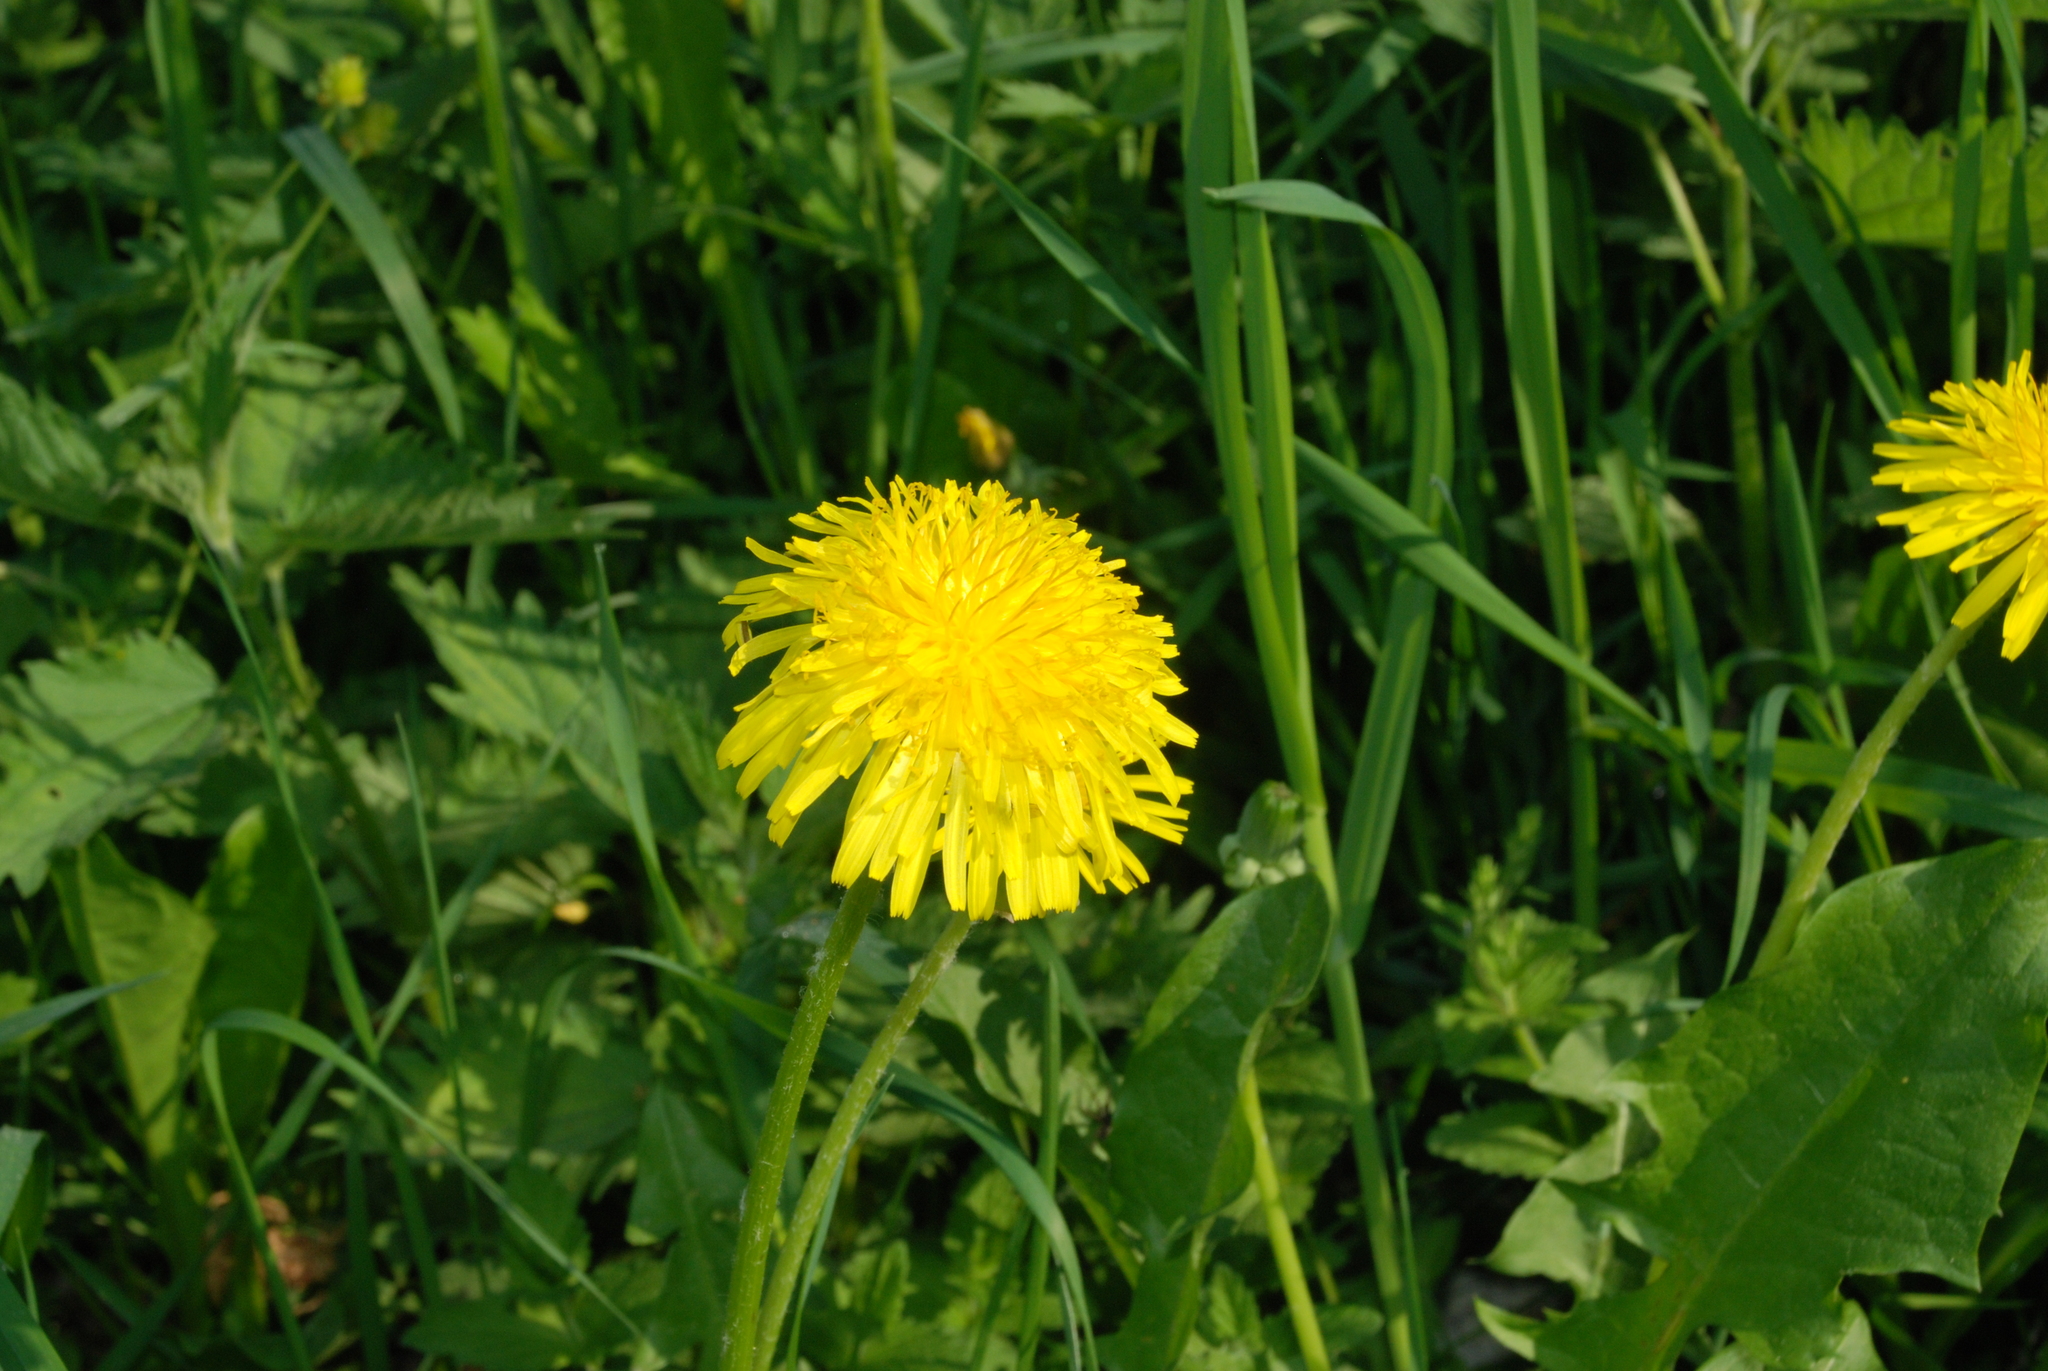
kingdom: Plantae
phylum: Tracheophyta
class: Magnoliopsida
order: Asterales
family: Asteraceae
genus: Taraxacum
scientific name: Taraxacum officinale
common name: Common dandelion
